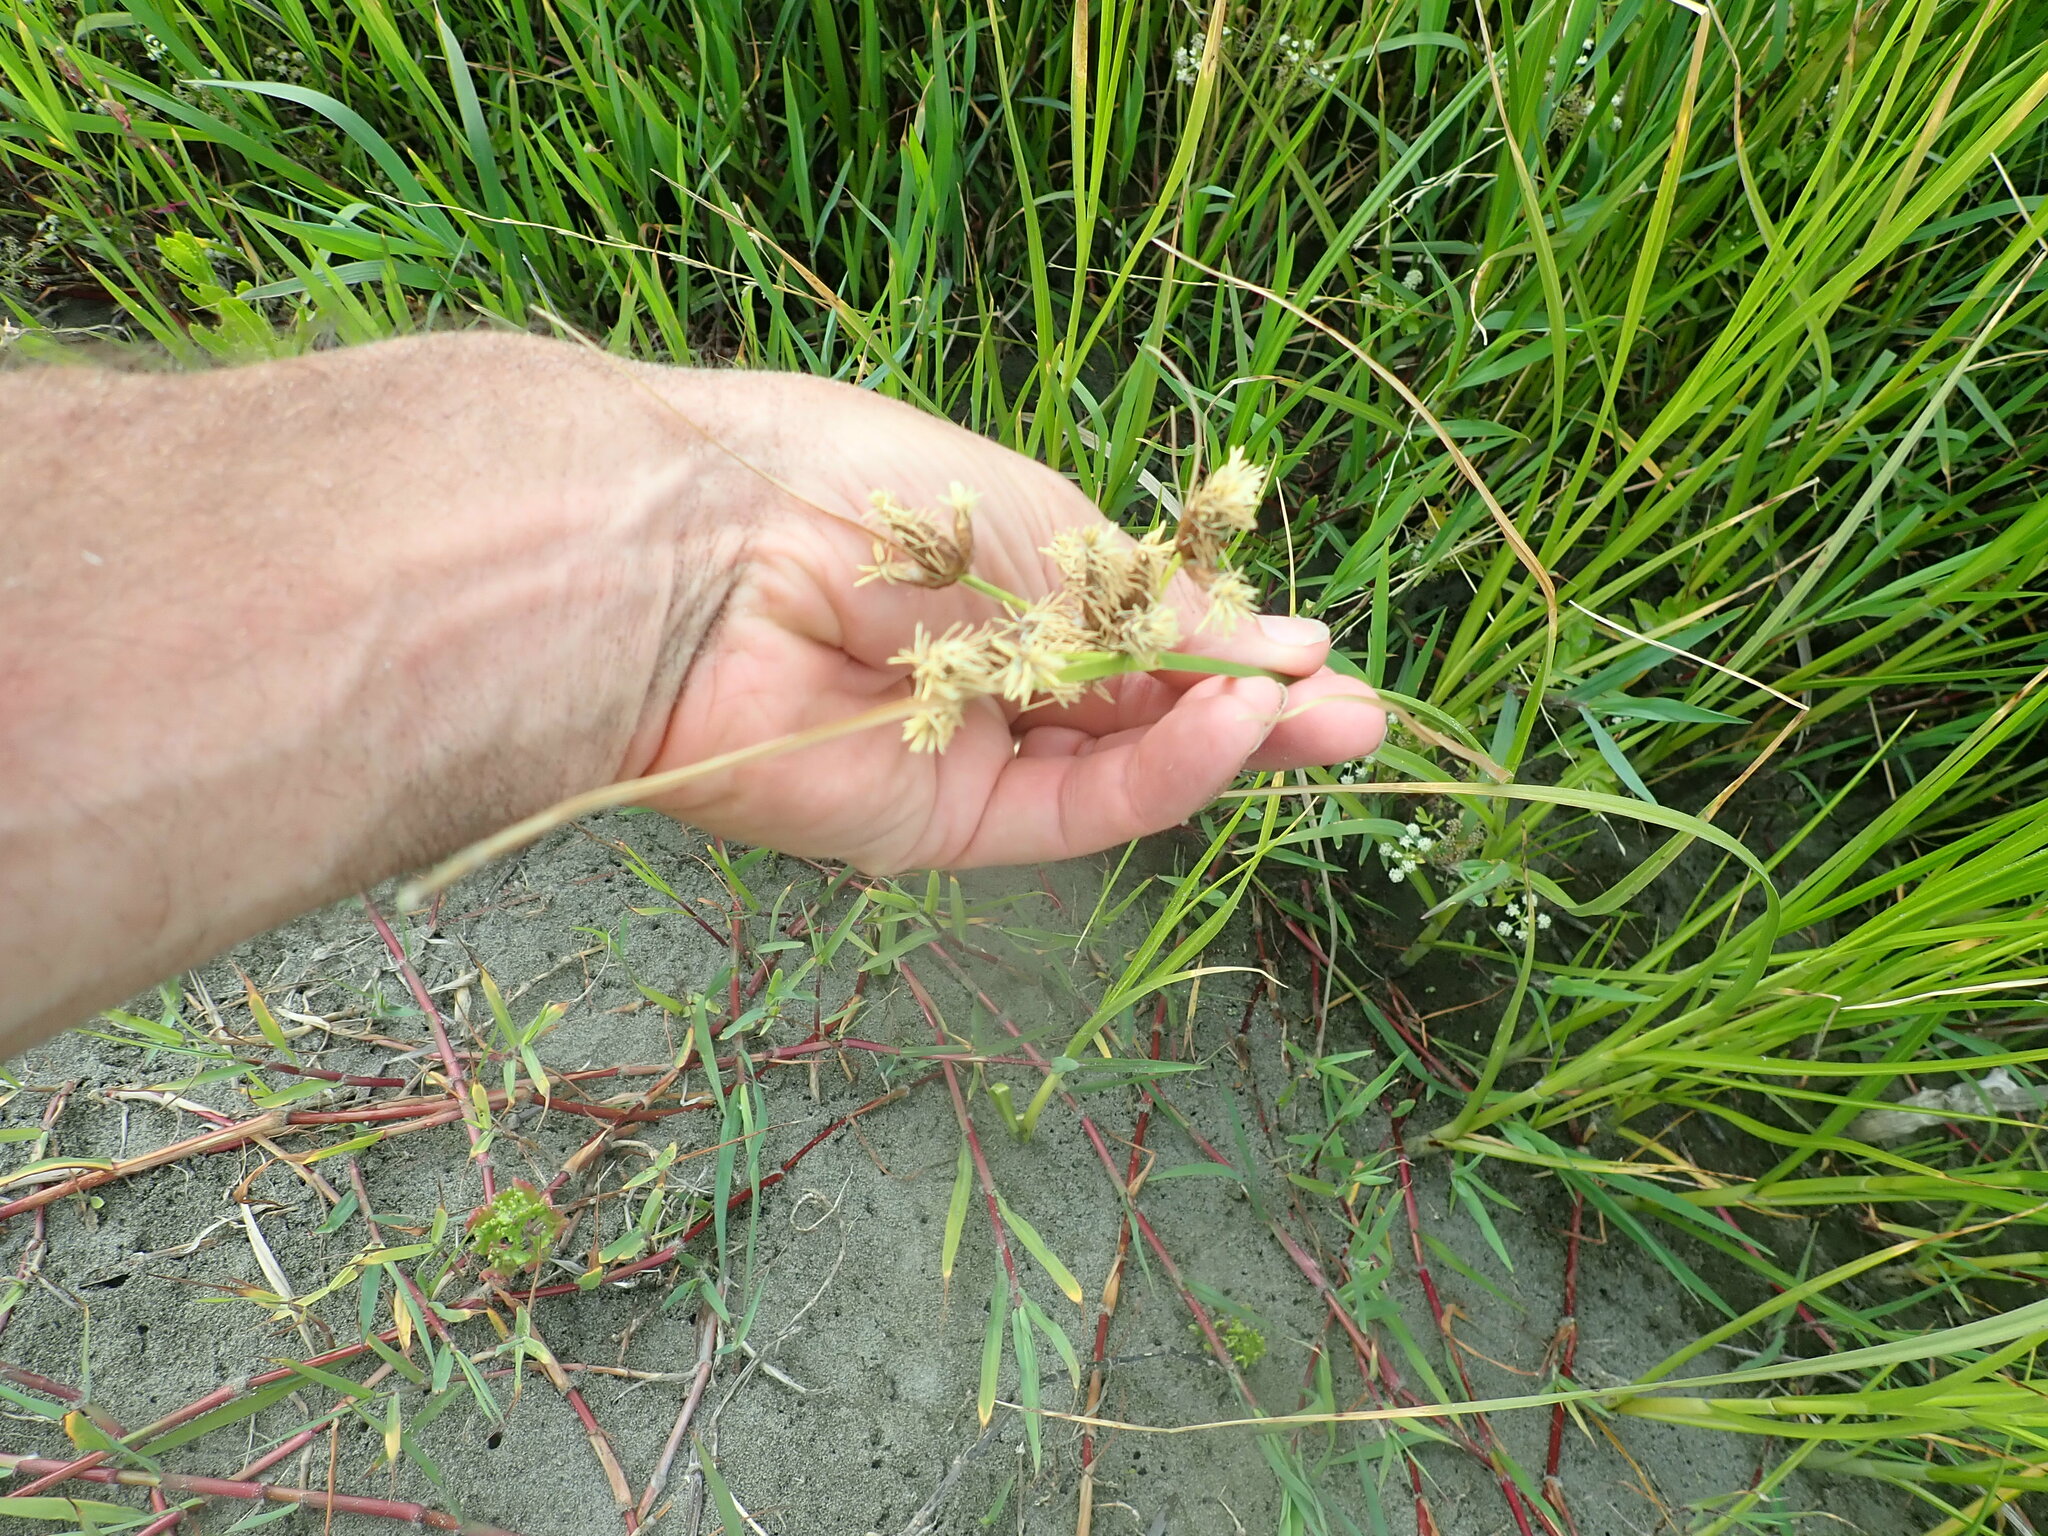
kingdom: Plantae
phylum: Tracheophyta
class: Liliopsida
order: Poales
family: Cyperaceae
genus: Bolboschoenus
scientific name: Bolboschoenus caldwellii
